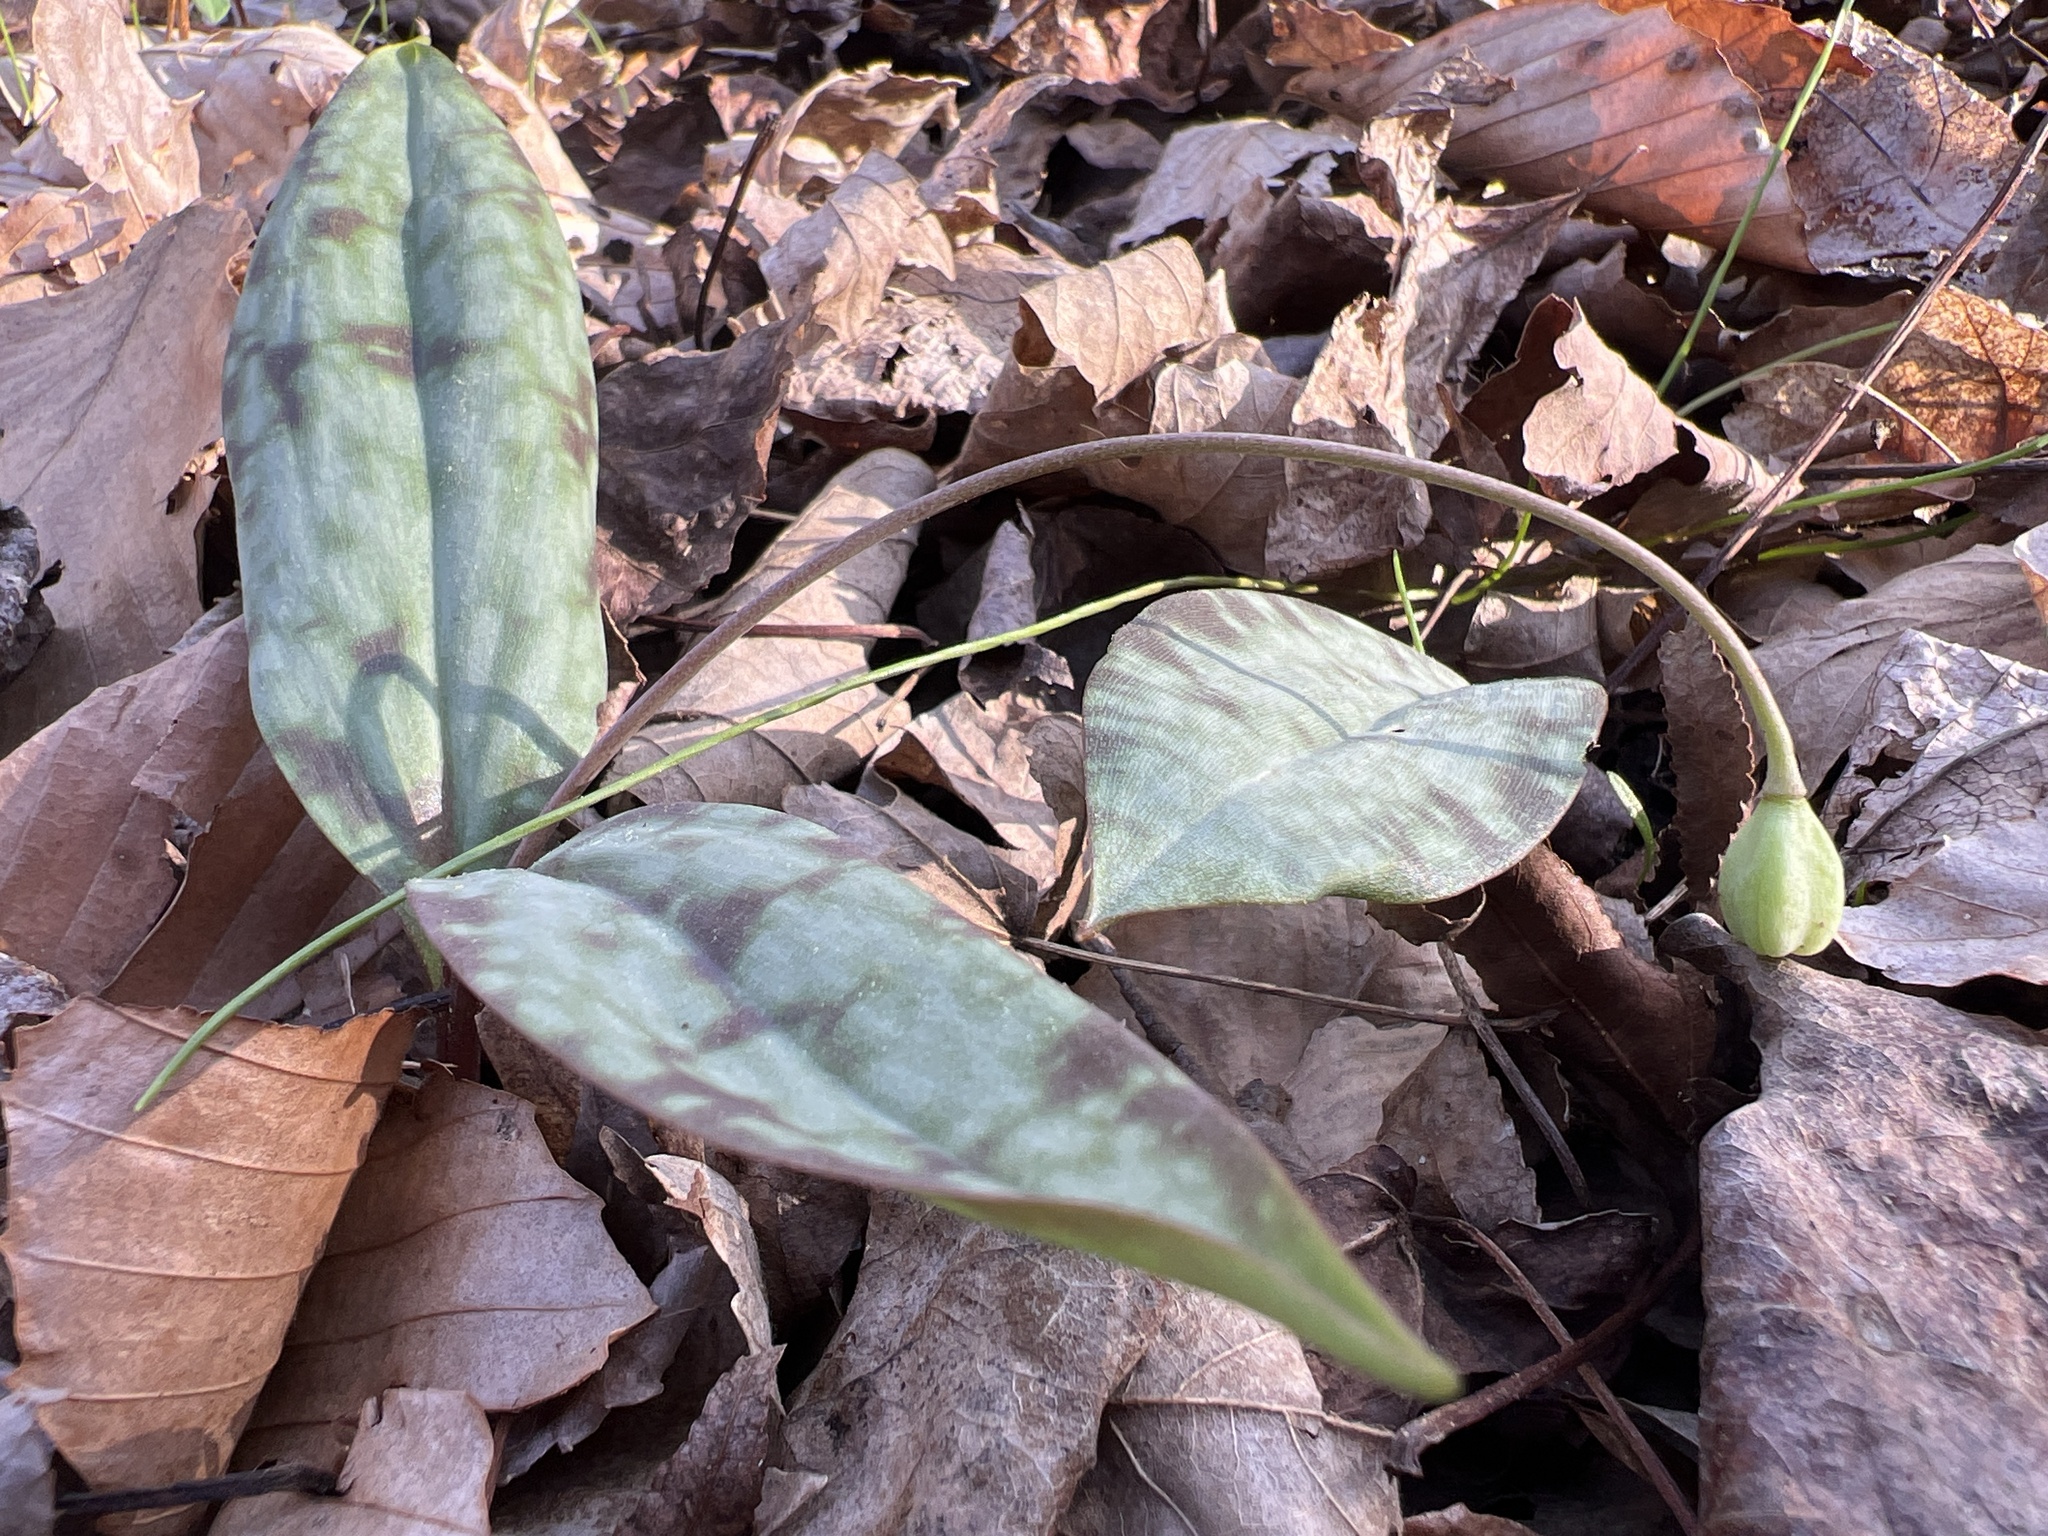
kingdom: Plantae
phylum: Tracheophyta
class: Liliopsida
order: Liliales
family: Liliaceae
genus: Erythronium
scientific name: Erythronium umbilicatum
